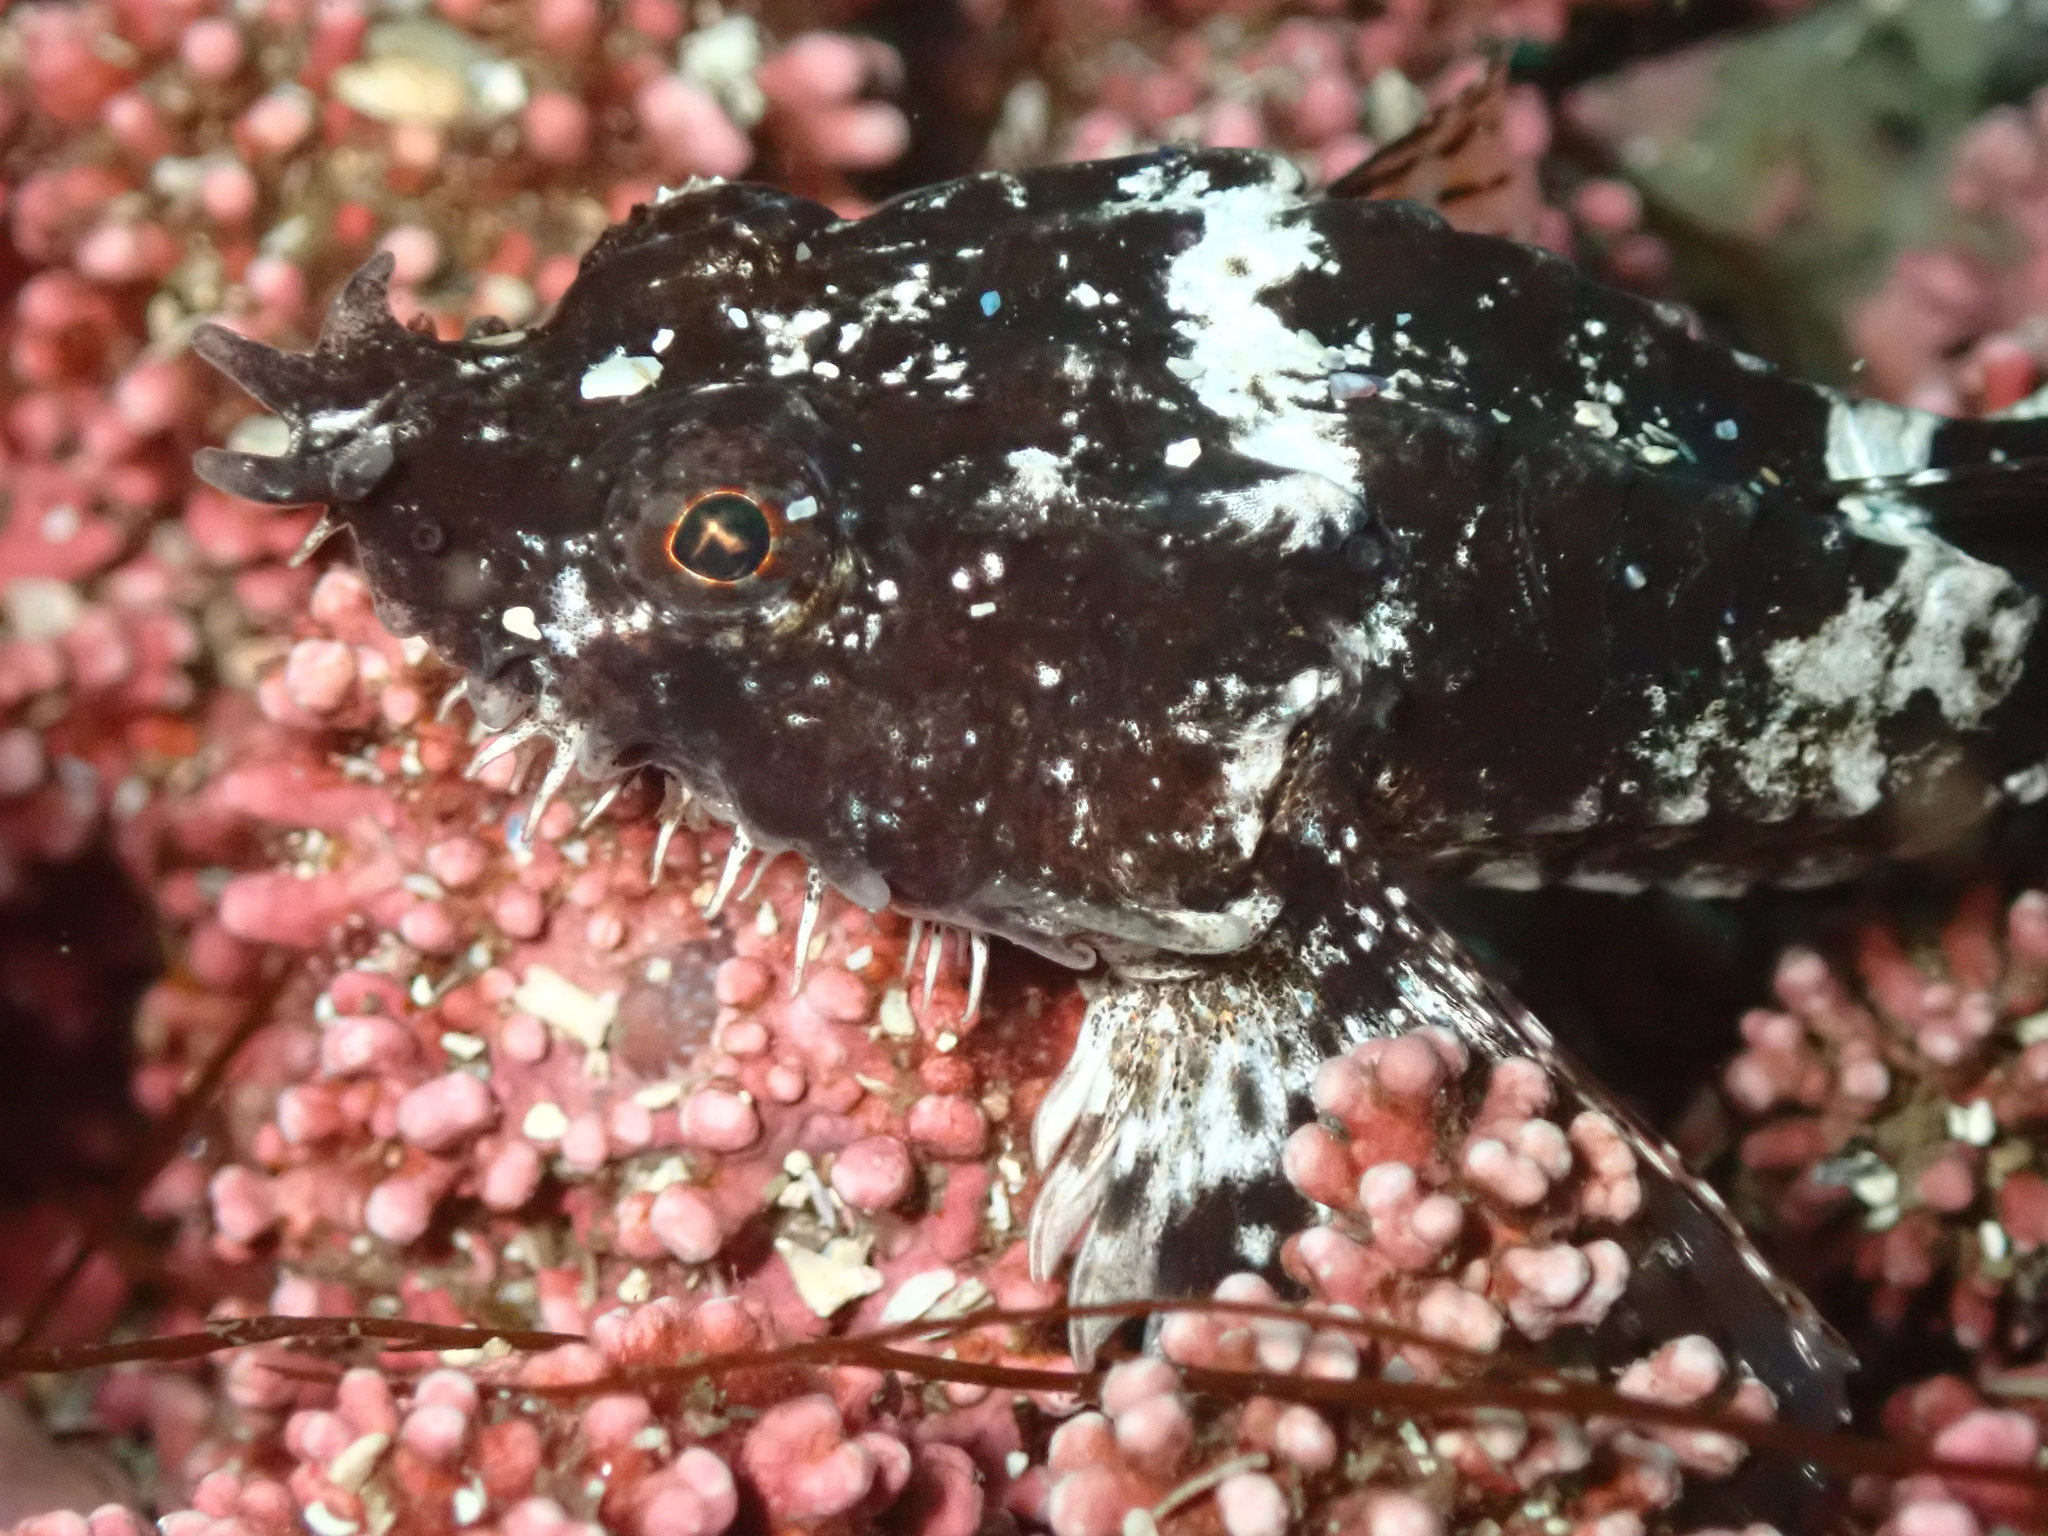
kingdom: Animalia
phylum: Chordata
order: Scorpaeniformes
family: Agonidae
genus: Agonus
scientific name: Agonus cataphractus
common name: Pogge
